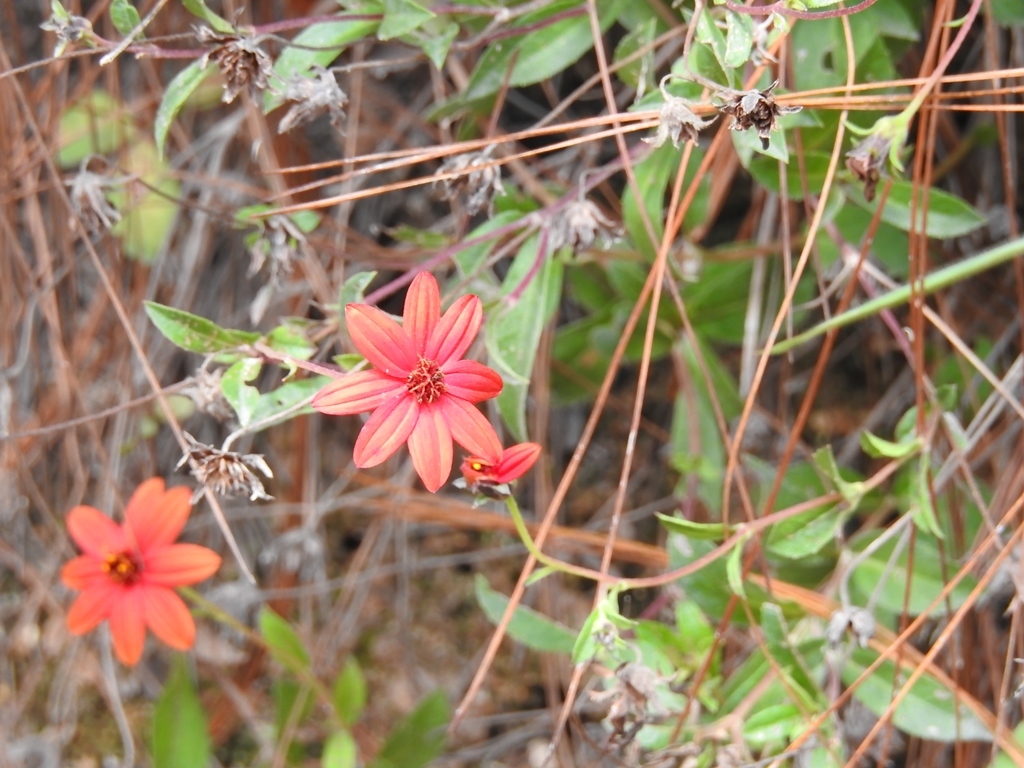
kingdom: Plantae
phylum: Tracheophyta
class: Magnoliopsida
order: Asterales
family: Asteraceae
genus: Wedelia
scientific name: Wedelia purpurea
